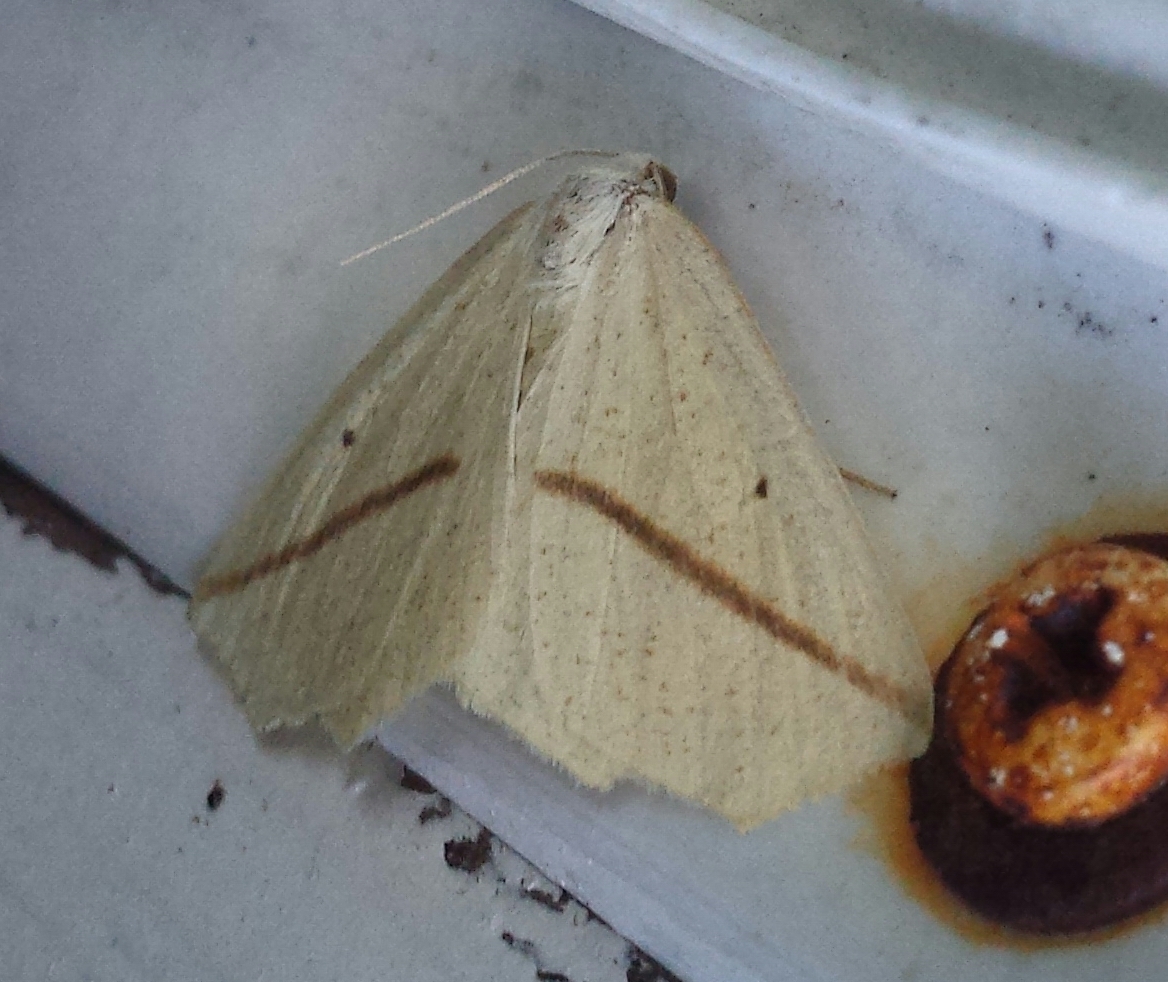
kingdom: Animalia
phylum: Arthropoda
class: Insecta
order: Lepidoptera
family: Geometridae
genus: Tetracis
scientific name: Tetracis crocallata
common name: Yellow slant-line
